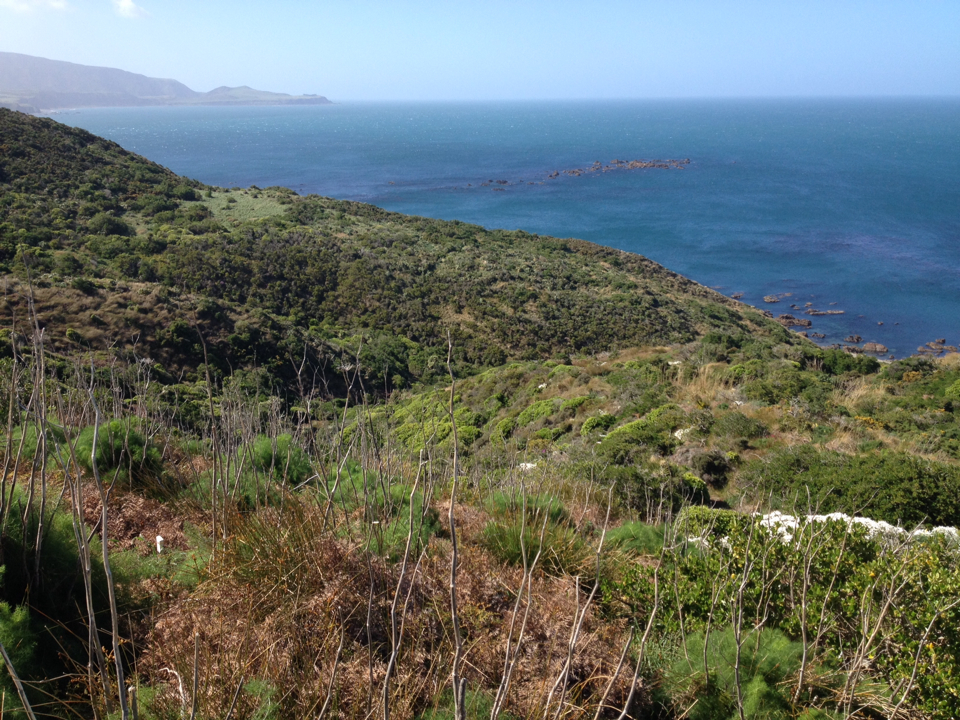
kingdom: Plantae
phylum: Tracheophyta
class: Magnoliopsida
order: Asterales
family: Asteraceae
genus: Osteospermum
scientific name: Osteospermum moniliferum
